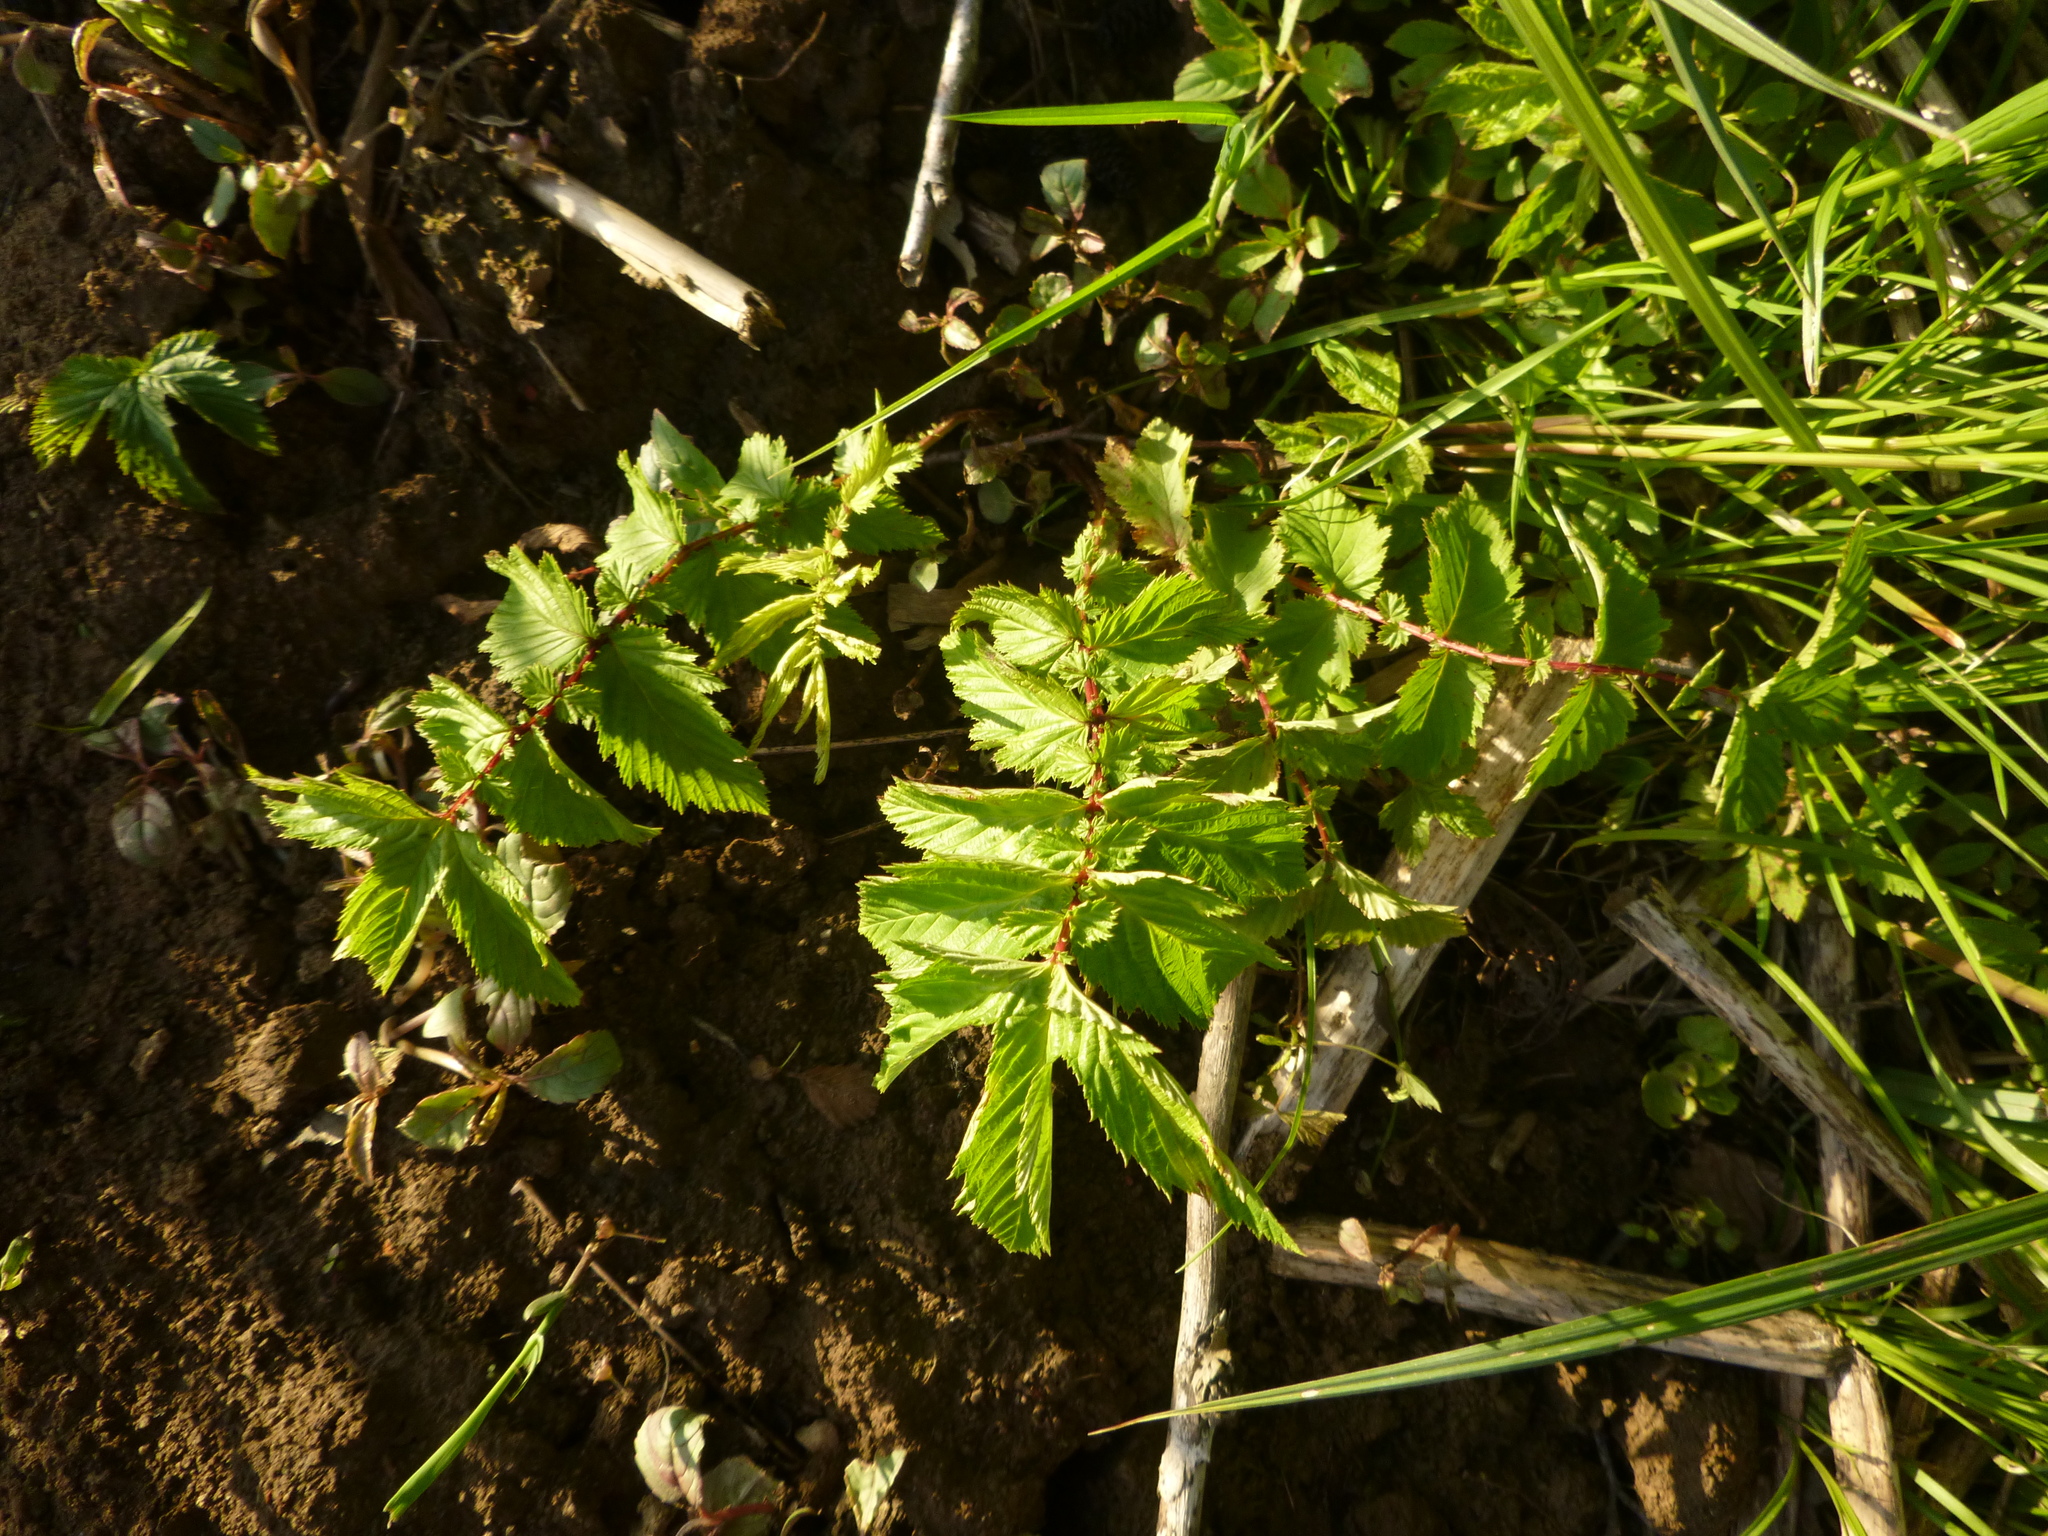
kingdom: Plantae
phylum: Tracheophyta
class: Magnoliopsida
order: Rosales
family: Rosaceae
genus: Filipendula
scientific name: Filipendula ulmaria
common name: Meadowsweet
